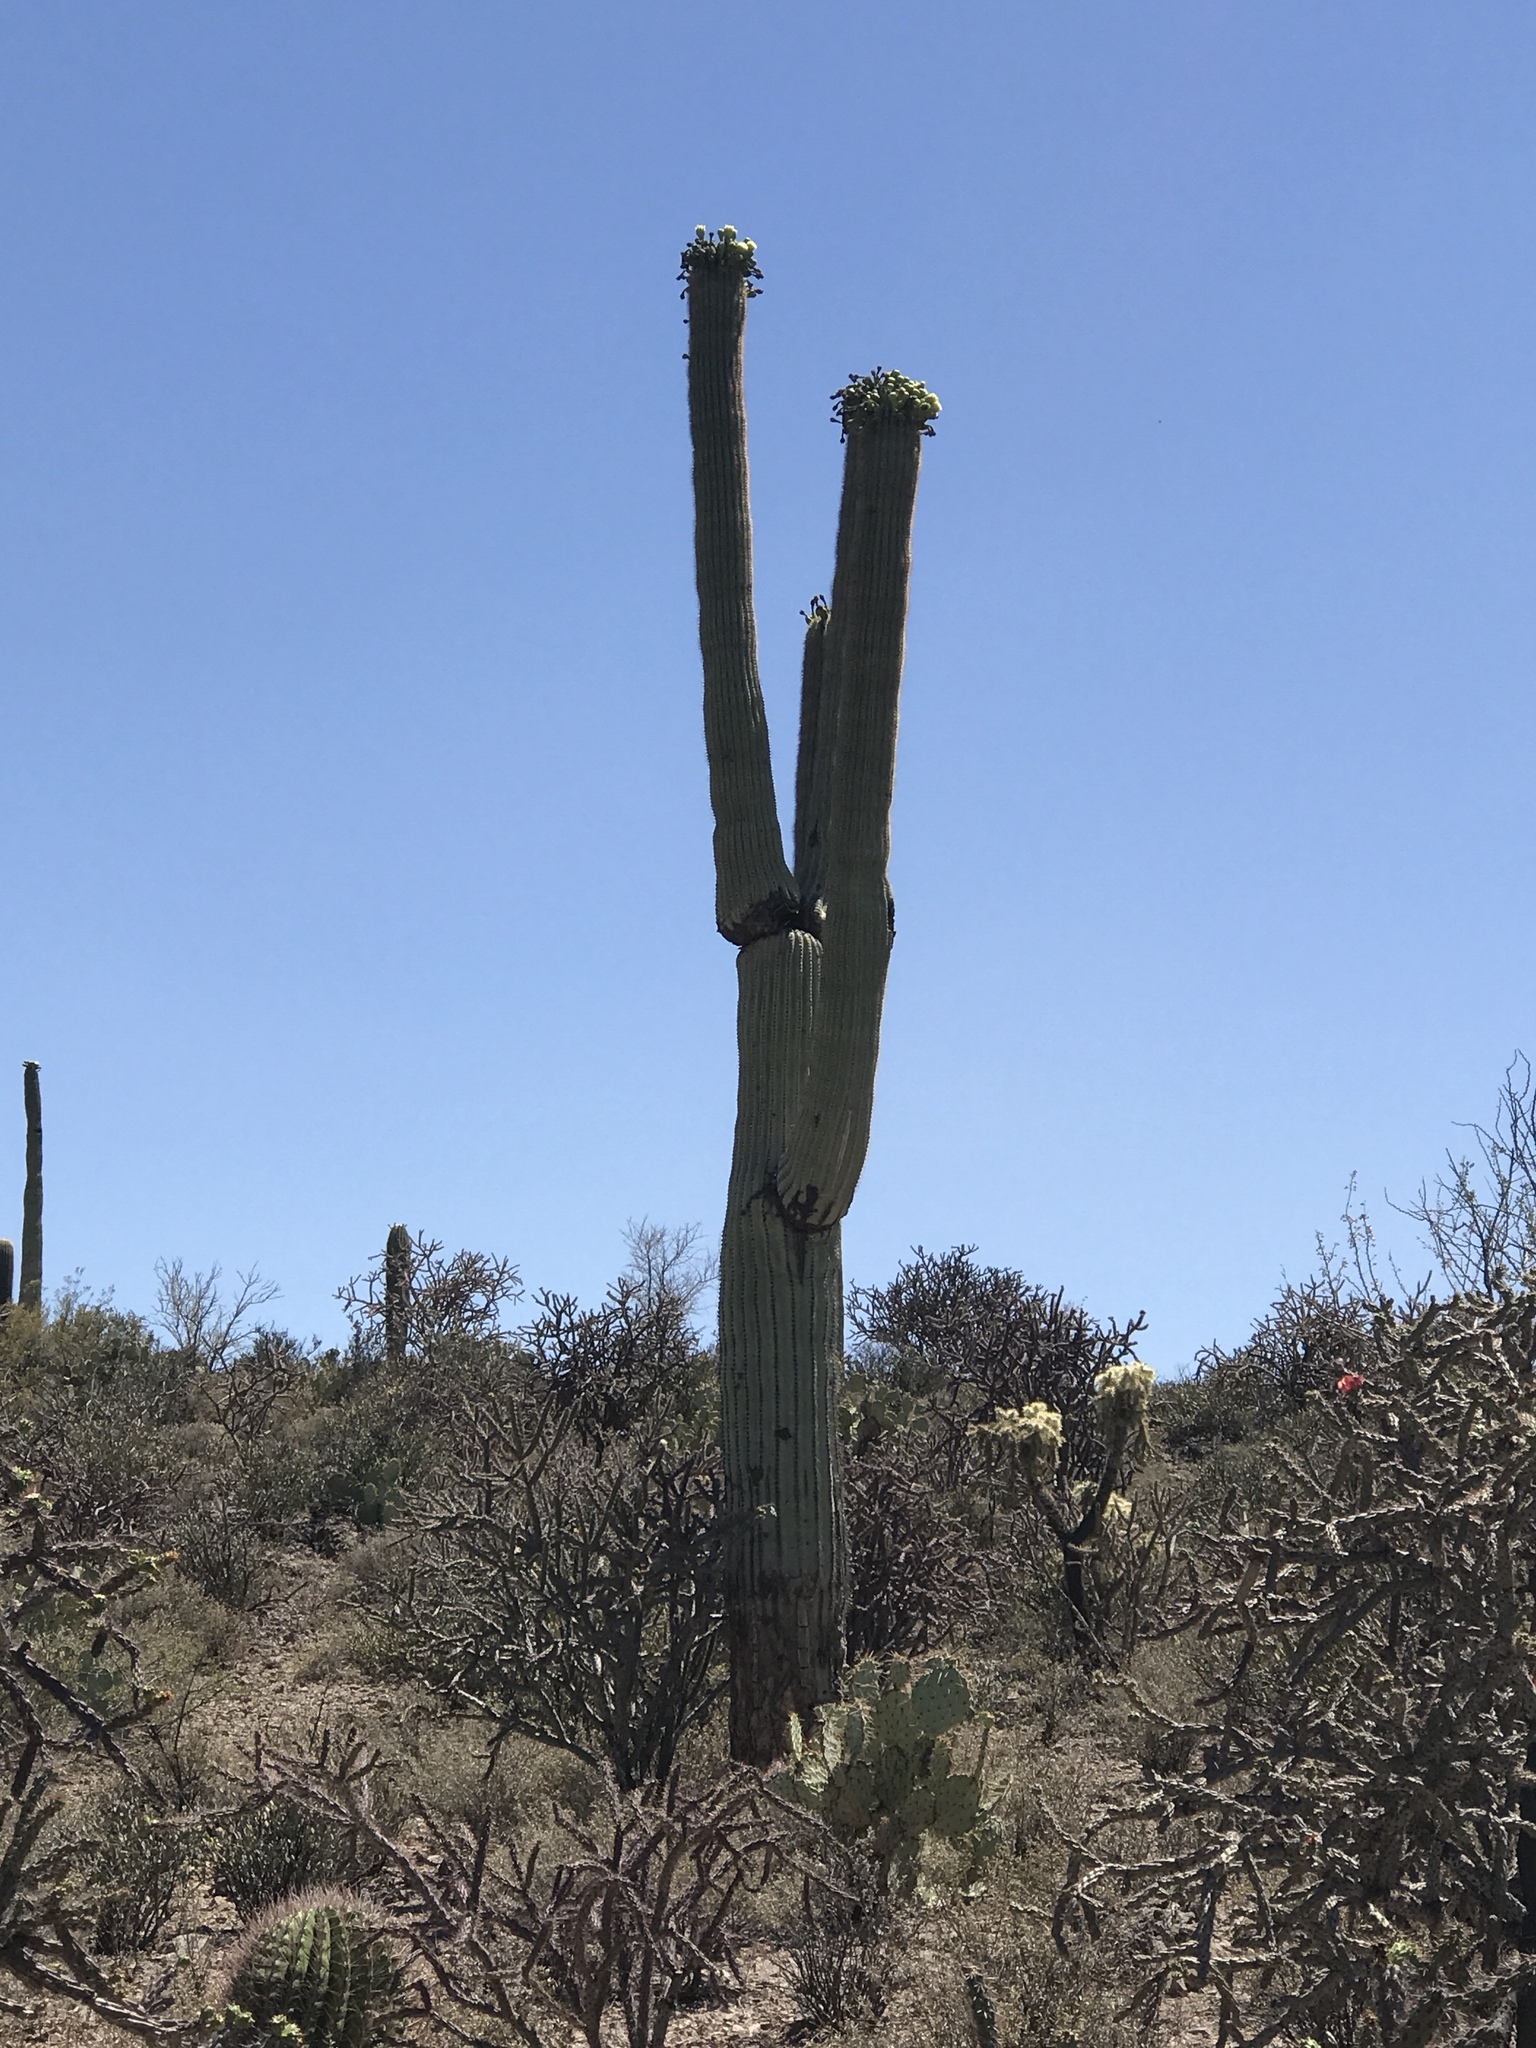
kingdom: Plantae
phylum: Tracheophyta
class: Magnoliopsida
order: Caryophyllales
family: Cactaceae
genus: Carnegiea
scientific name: Carnegiea gigantea
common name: Saguaro
